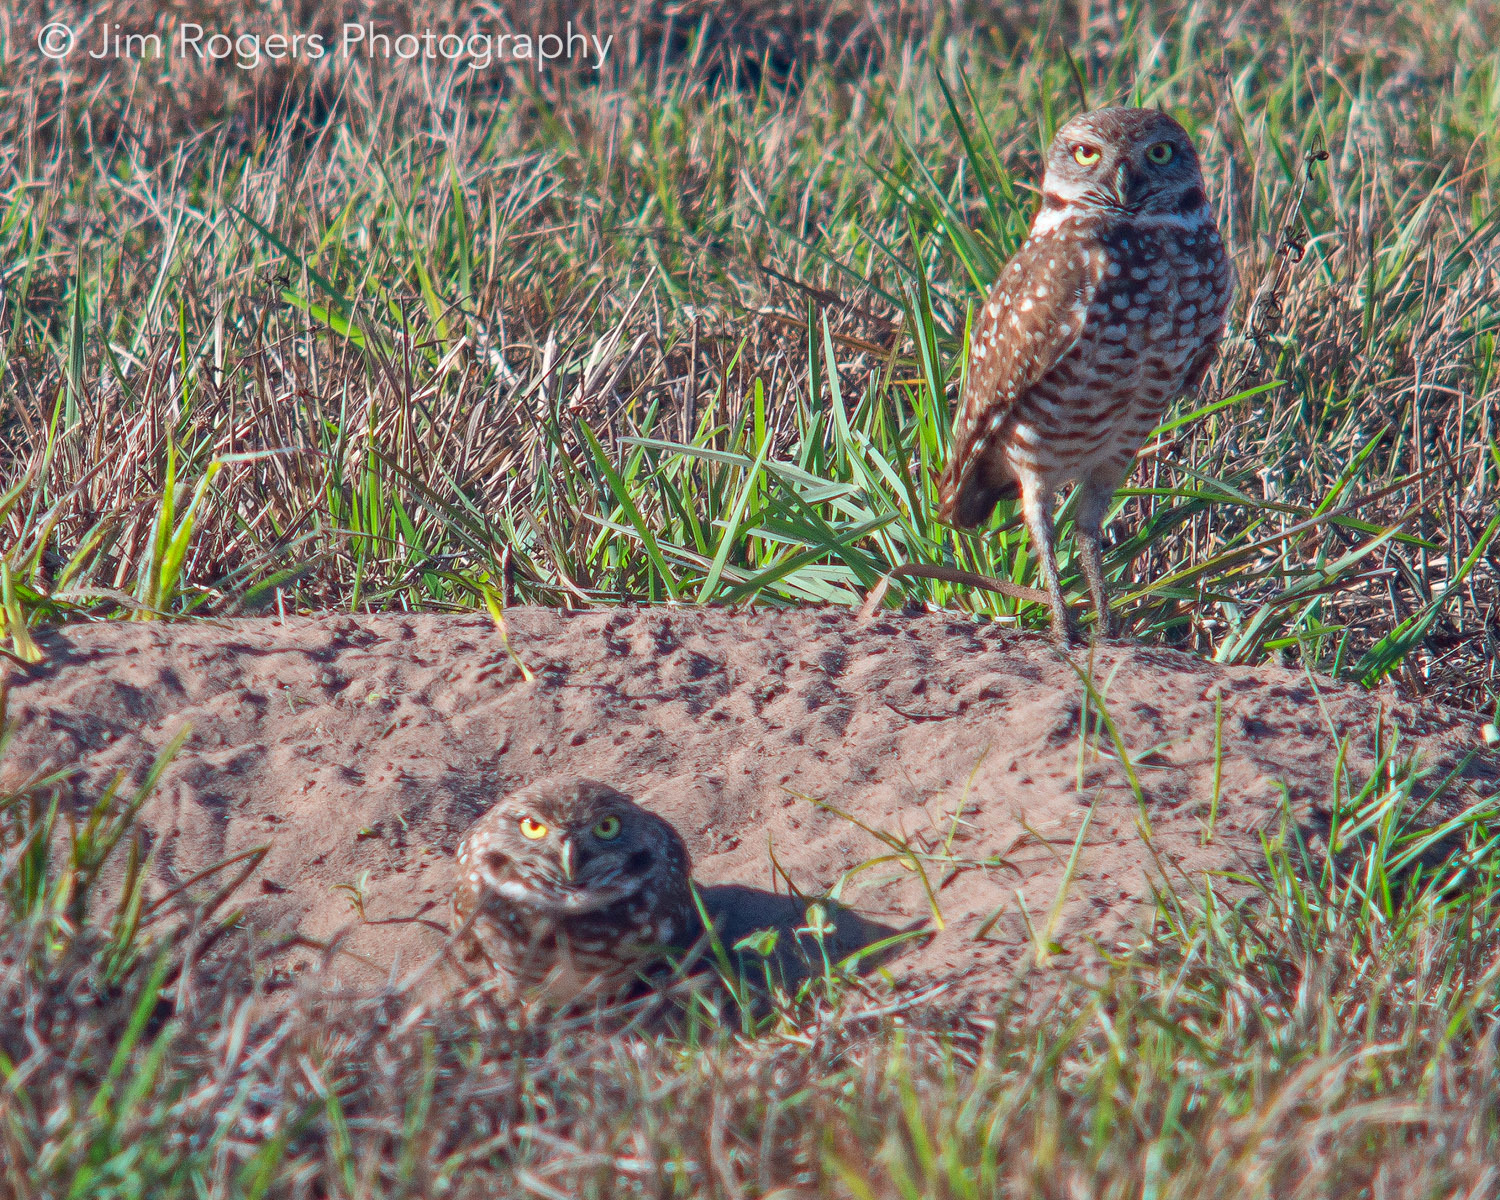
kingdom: Animalia
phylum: Chordata
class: Aves
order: Strigiformes
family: Strigidae
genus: Athene
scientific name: Athene cunicularia
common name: Burrowing owl
